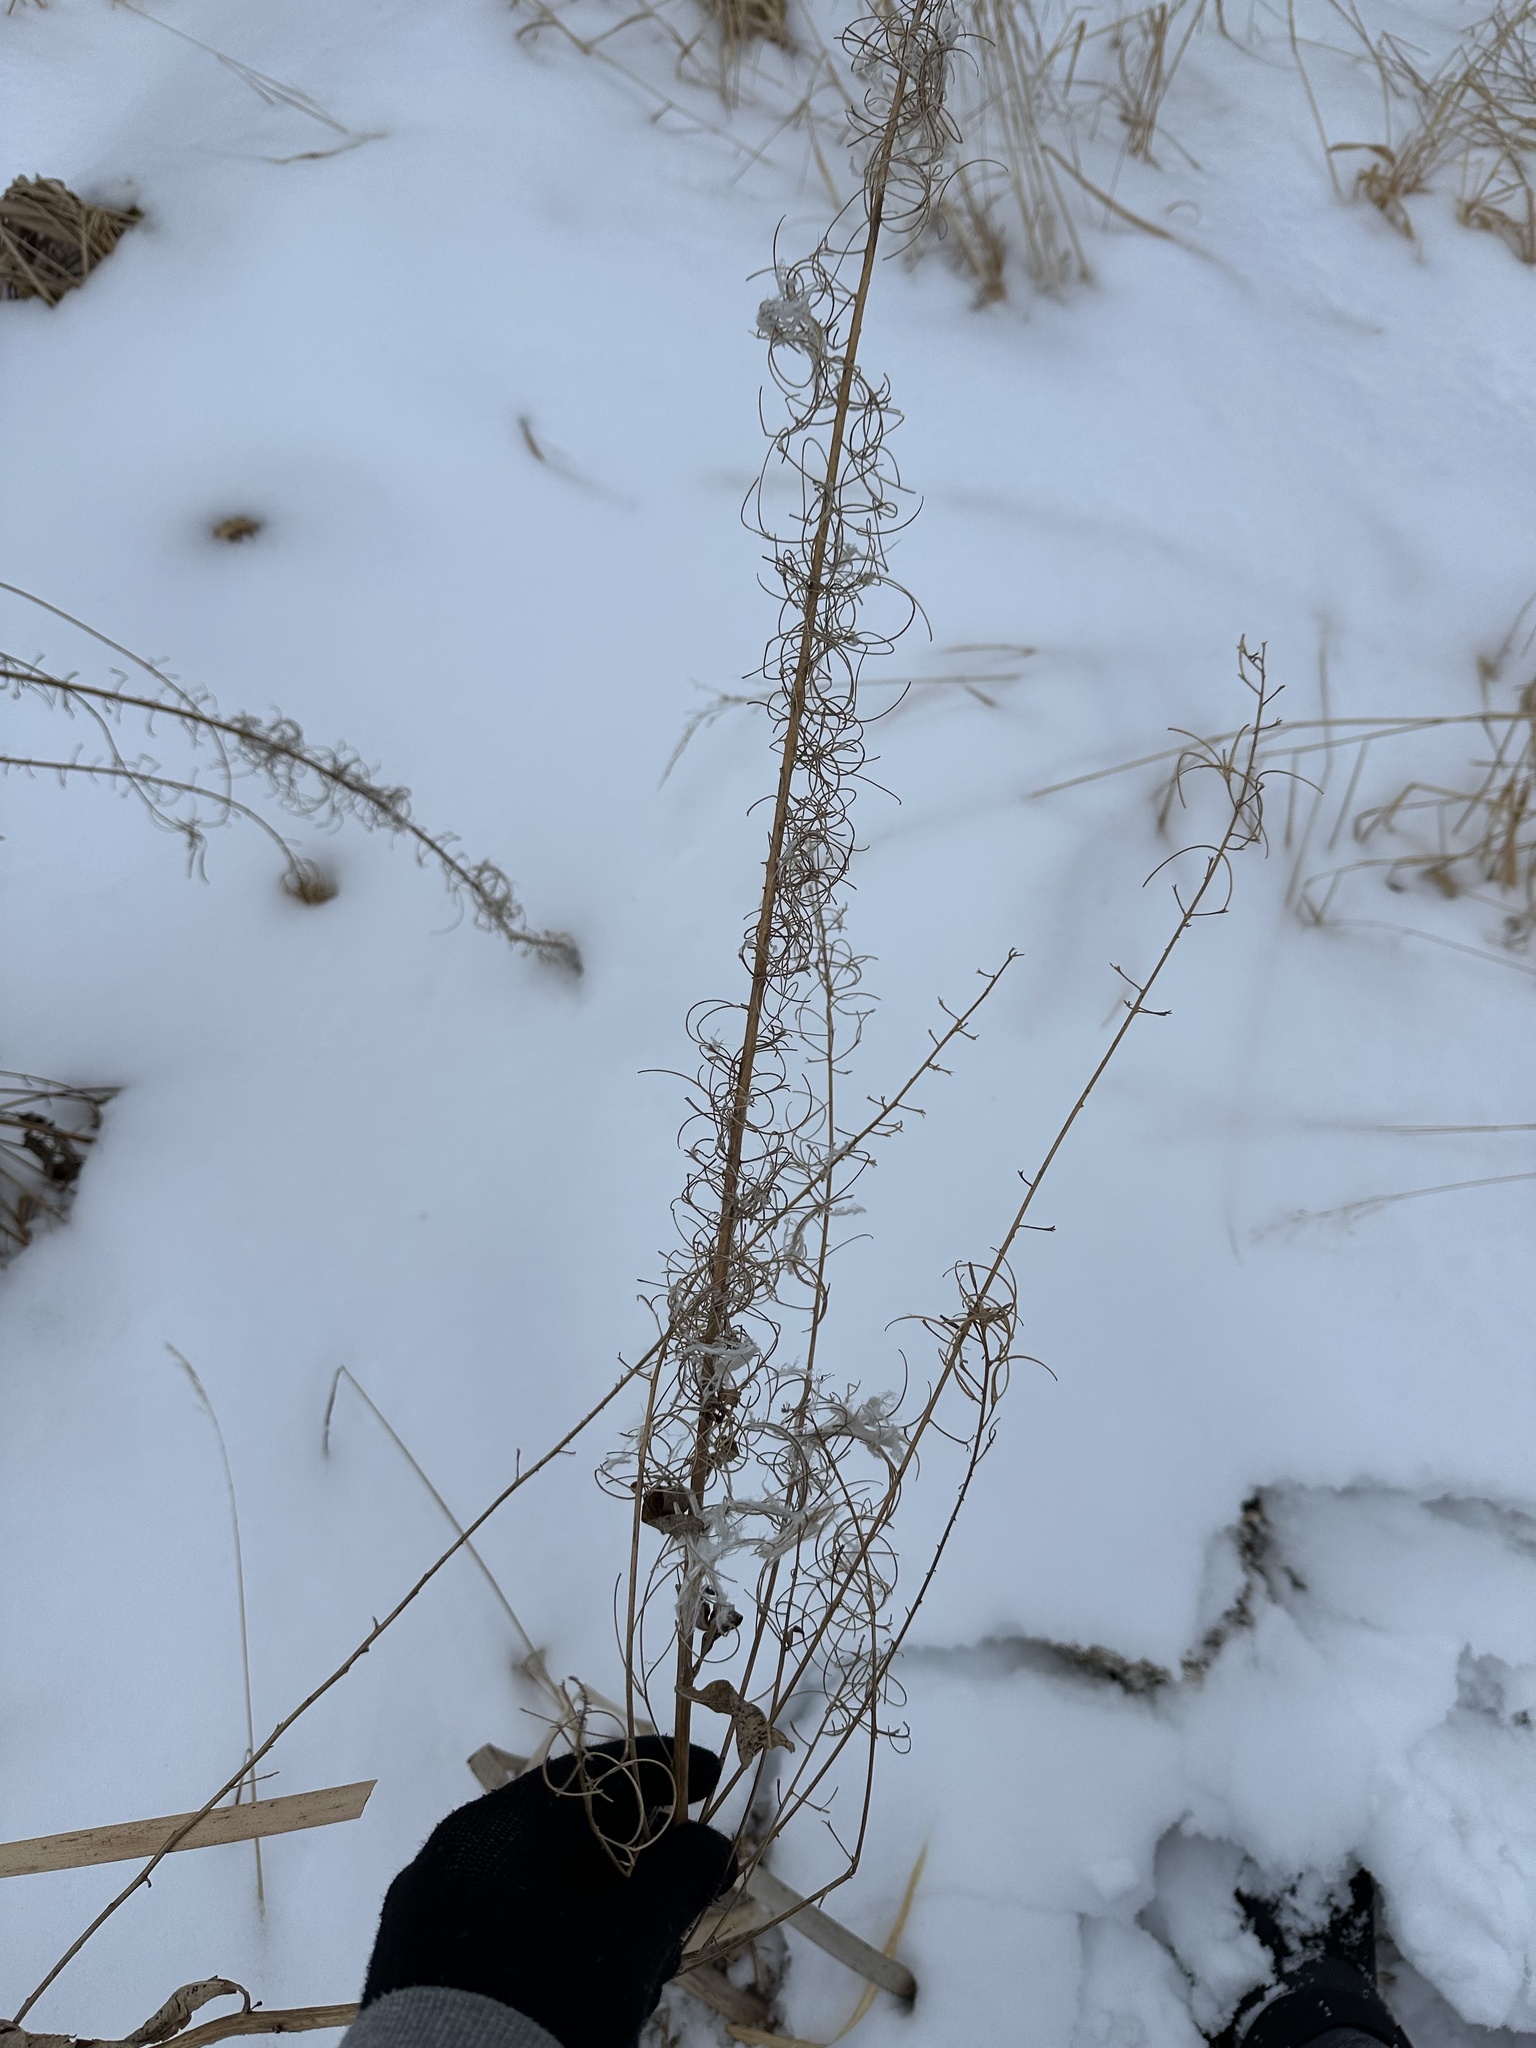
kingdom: Plantae
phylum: Tracheophyta
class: Magnoliopsida
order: Myrtales
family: Onagraceae
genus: Chamaenerion
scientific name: Chamaenerion angustifolium
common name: Fireweed
